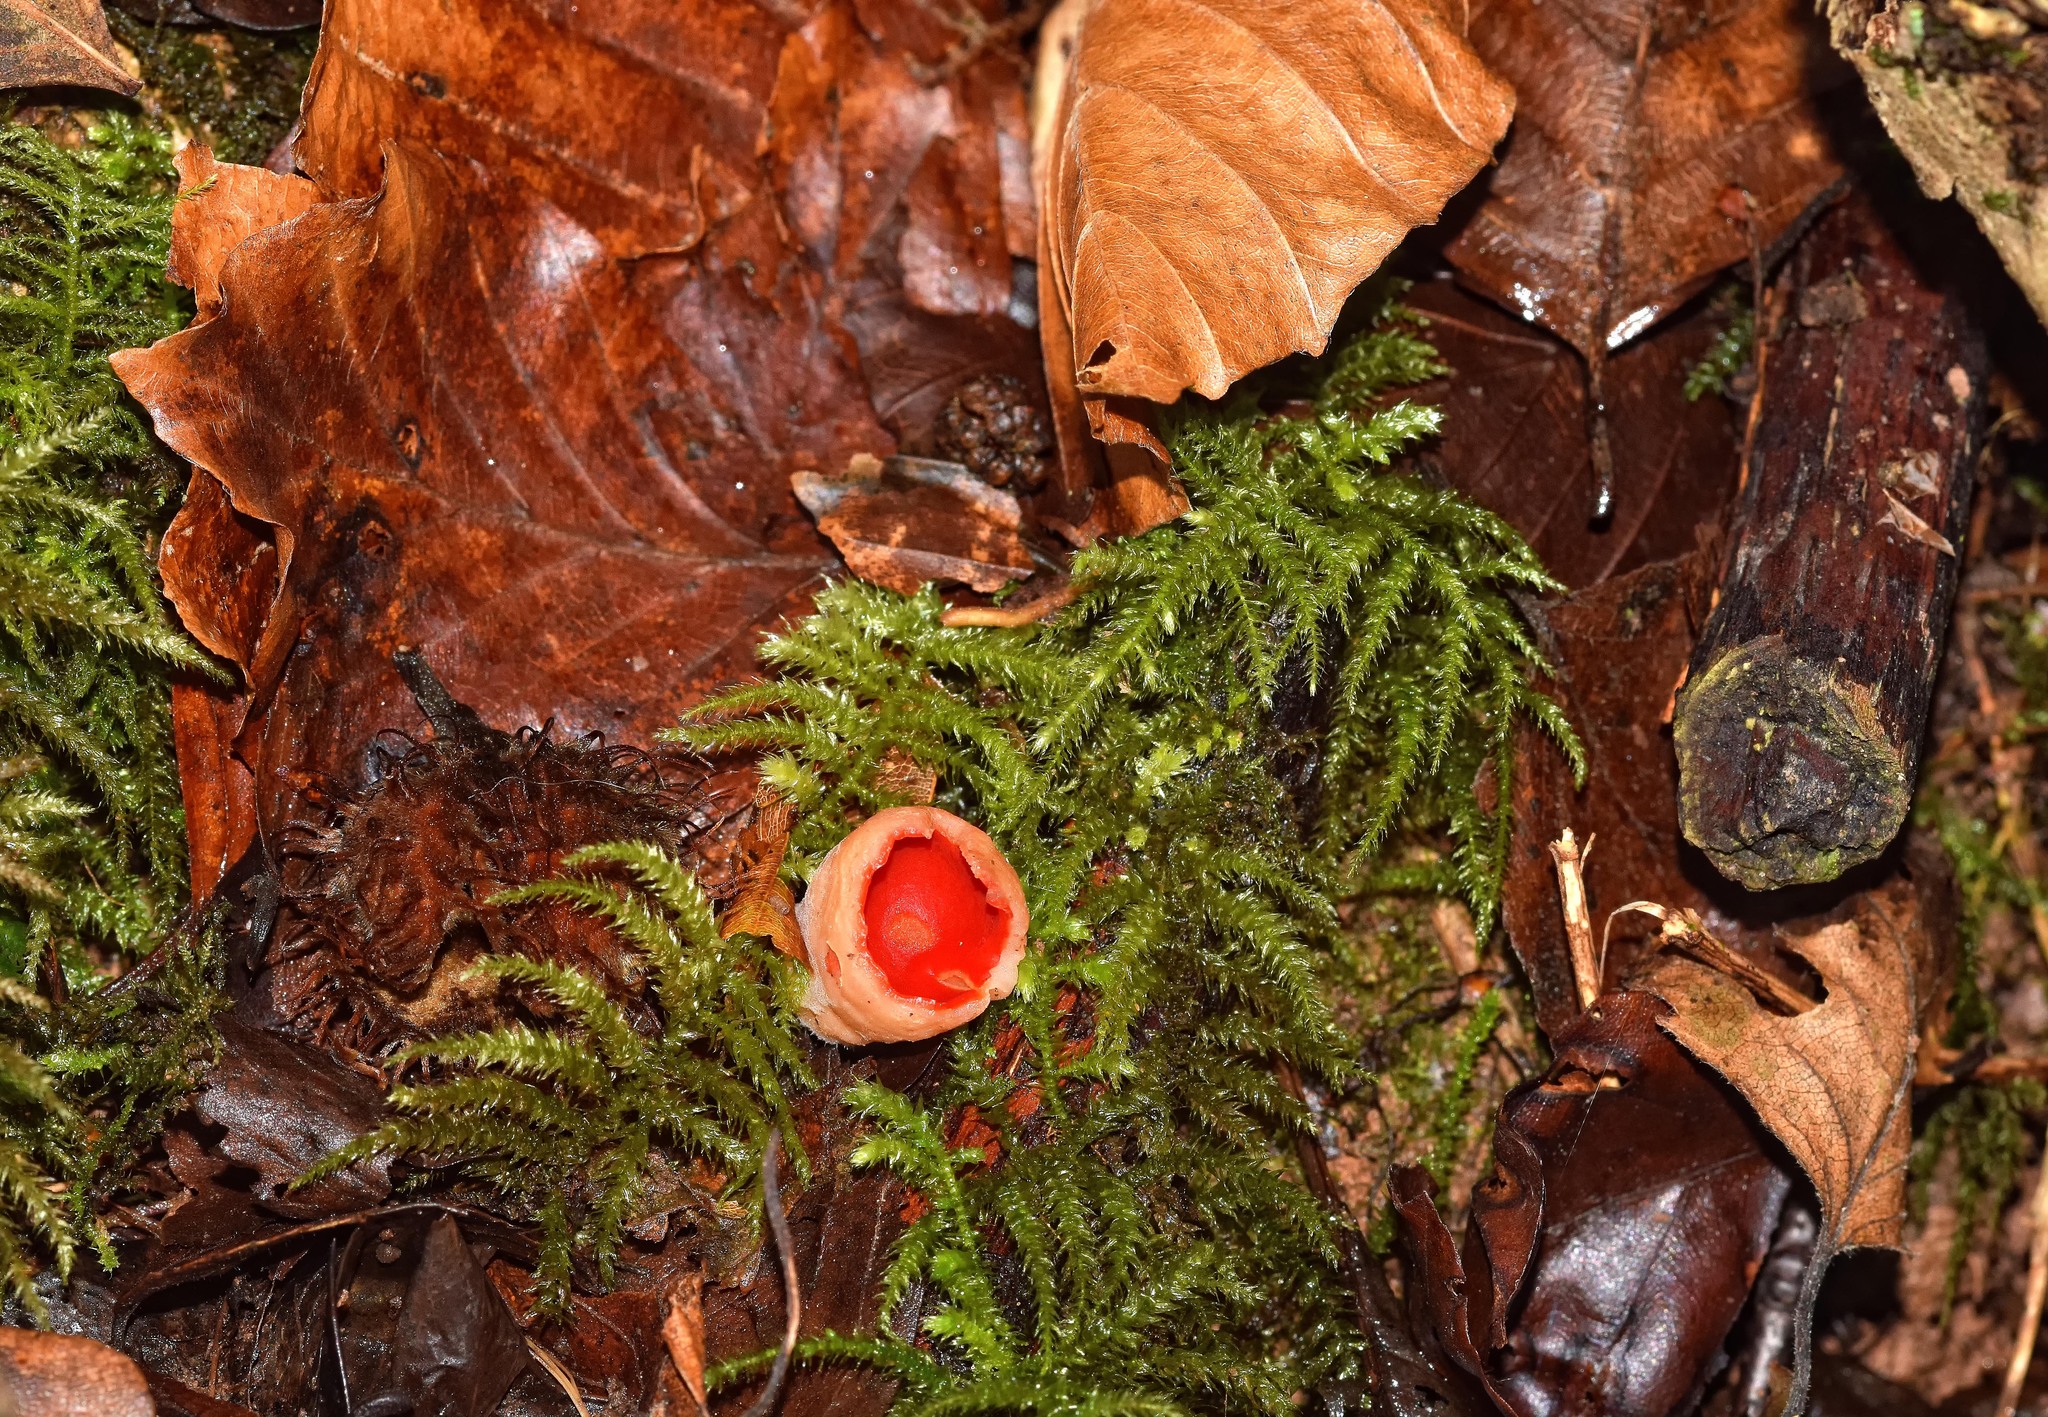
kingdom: Fungi
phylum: Ascomycota
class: Pezizomycetes
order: Pezizales
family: Sarcoscyphaceae
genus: Sarcoscypha
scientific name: Sarcoscypha
